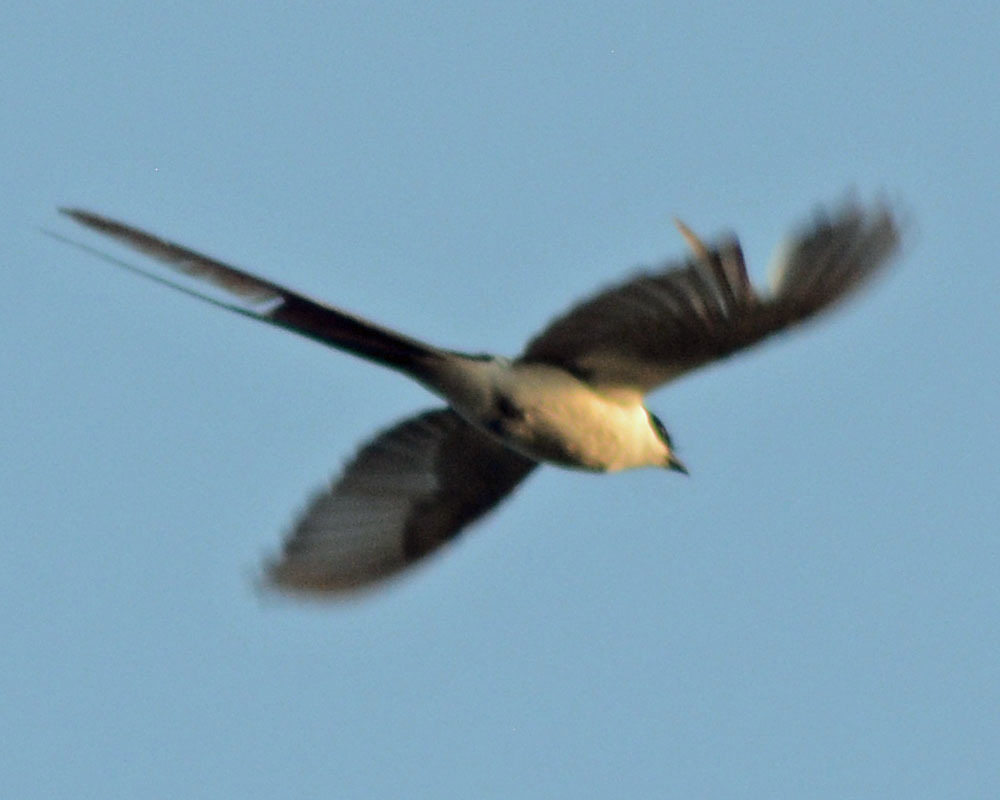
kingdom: Animalia
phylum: Chordata
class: Aves
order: Passeriformes
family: Tyrannidae
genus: Tyrannus
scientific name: Tyrannus savana
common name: Fork-tailed flycatcher
